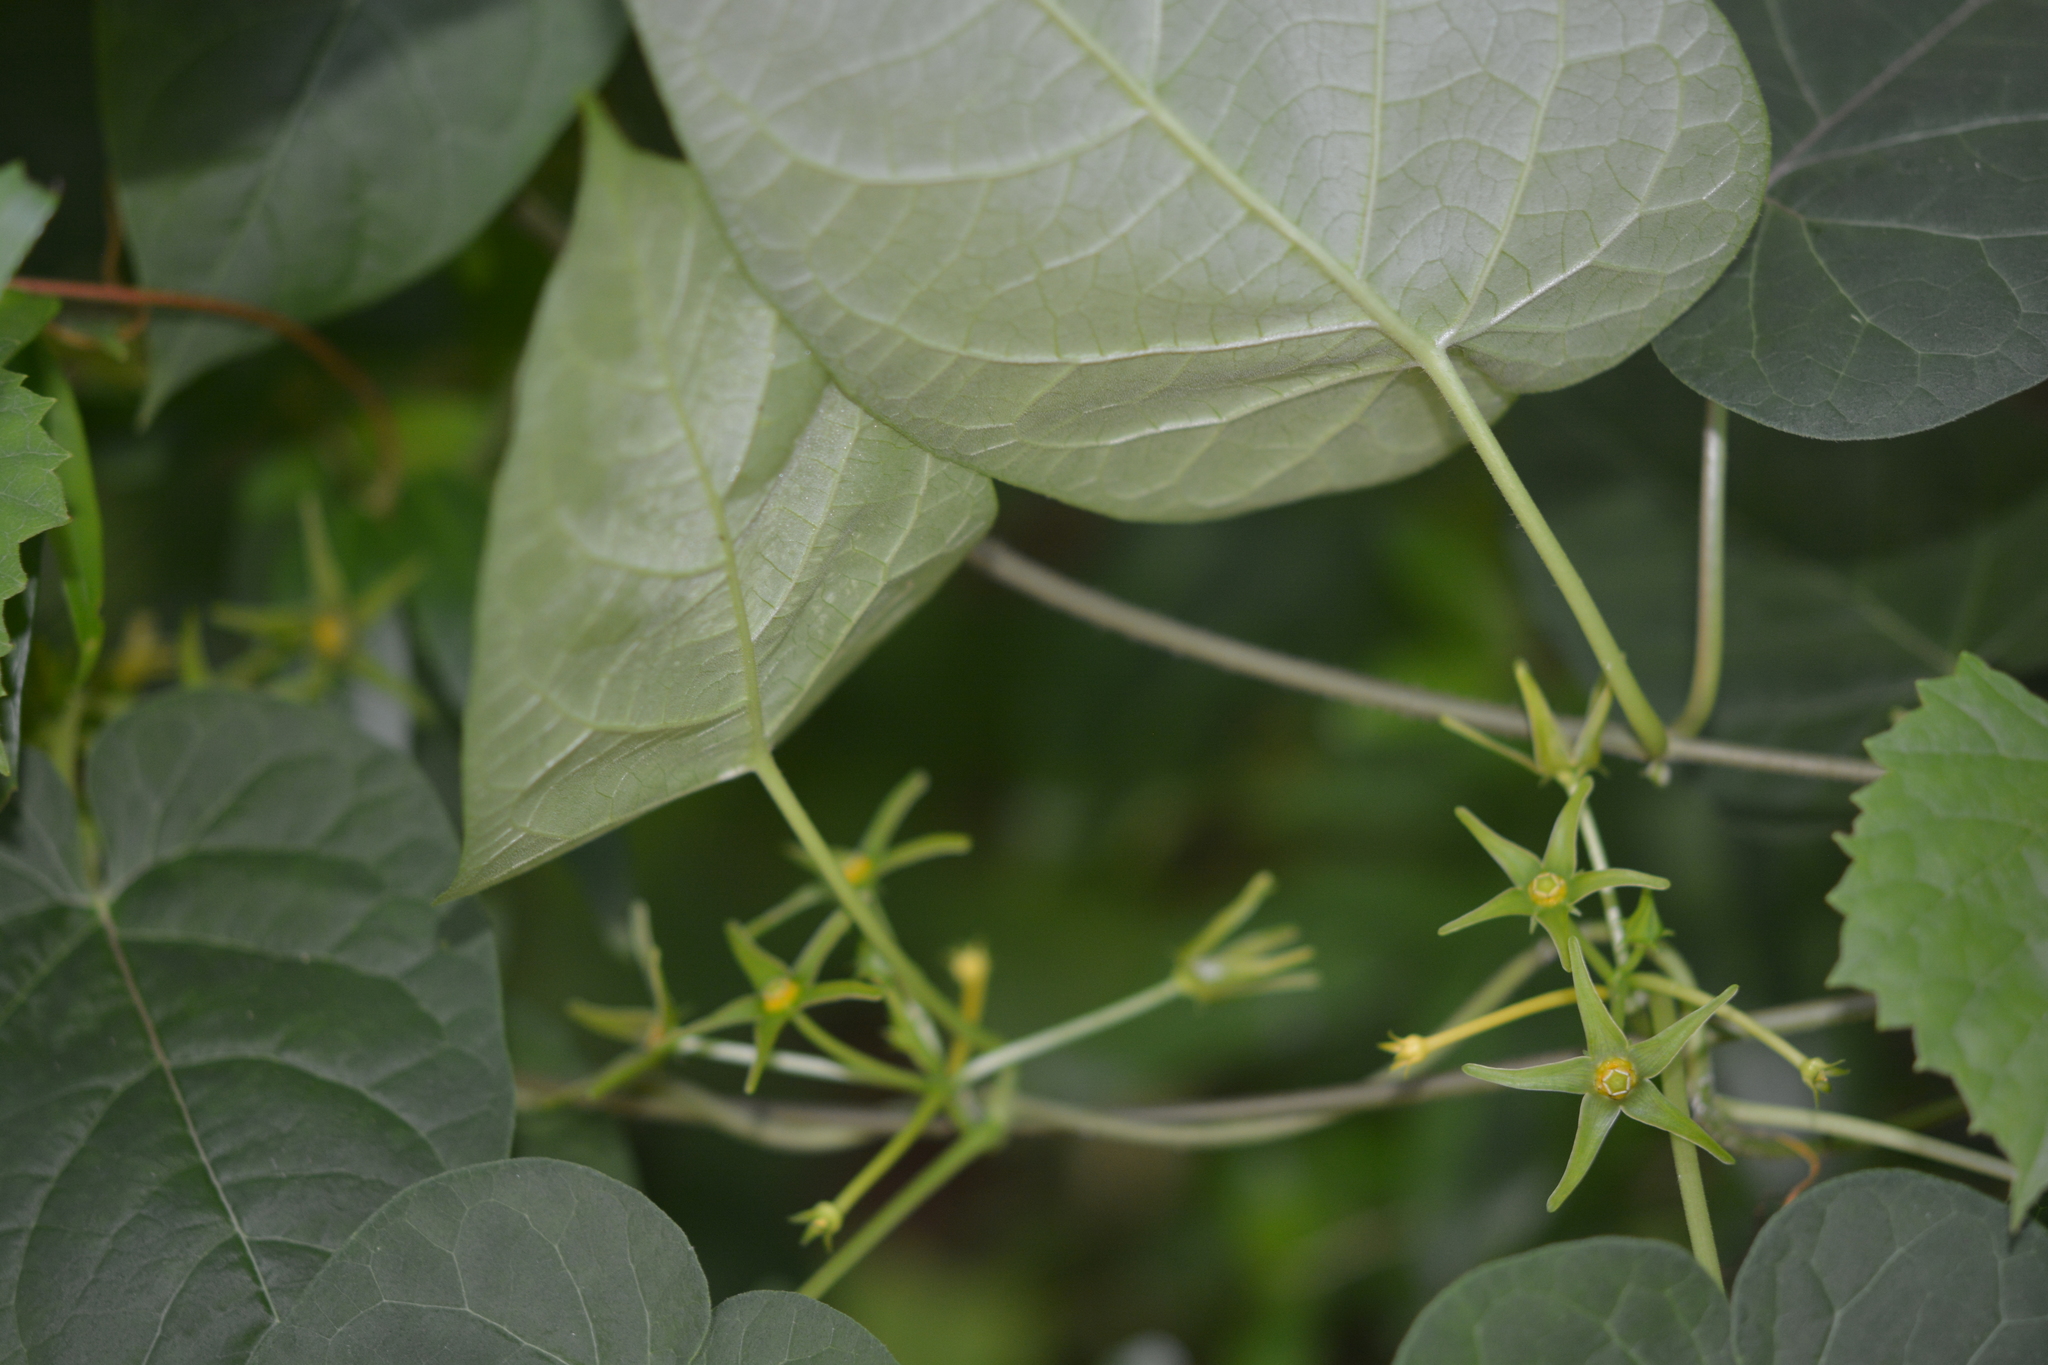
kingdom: Plantae
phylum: Tracheophyta
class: Magnoliopsida
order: Gentianales
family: Apocynaceae
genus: Gonolobus
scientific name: Gonolobus suberosus
